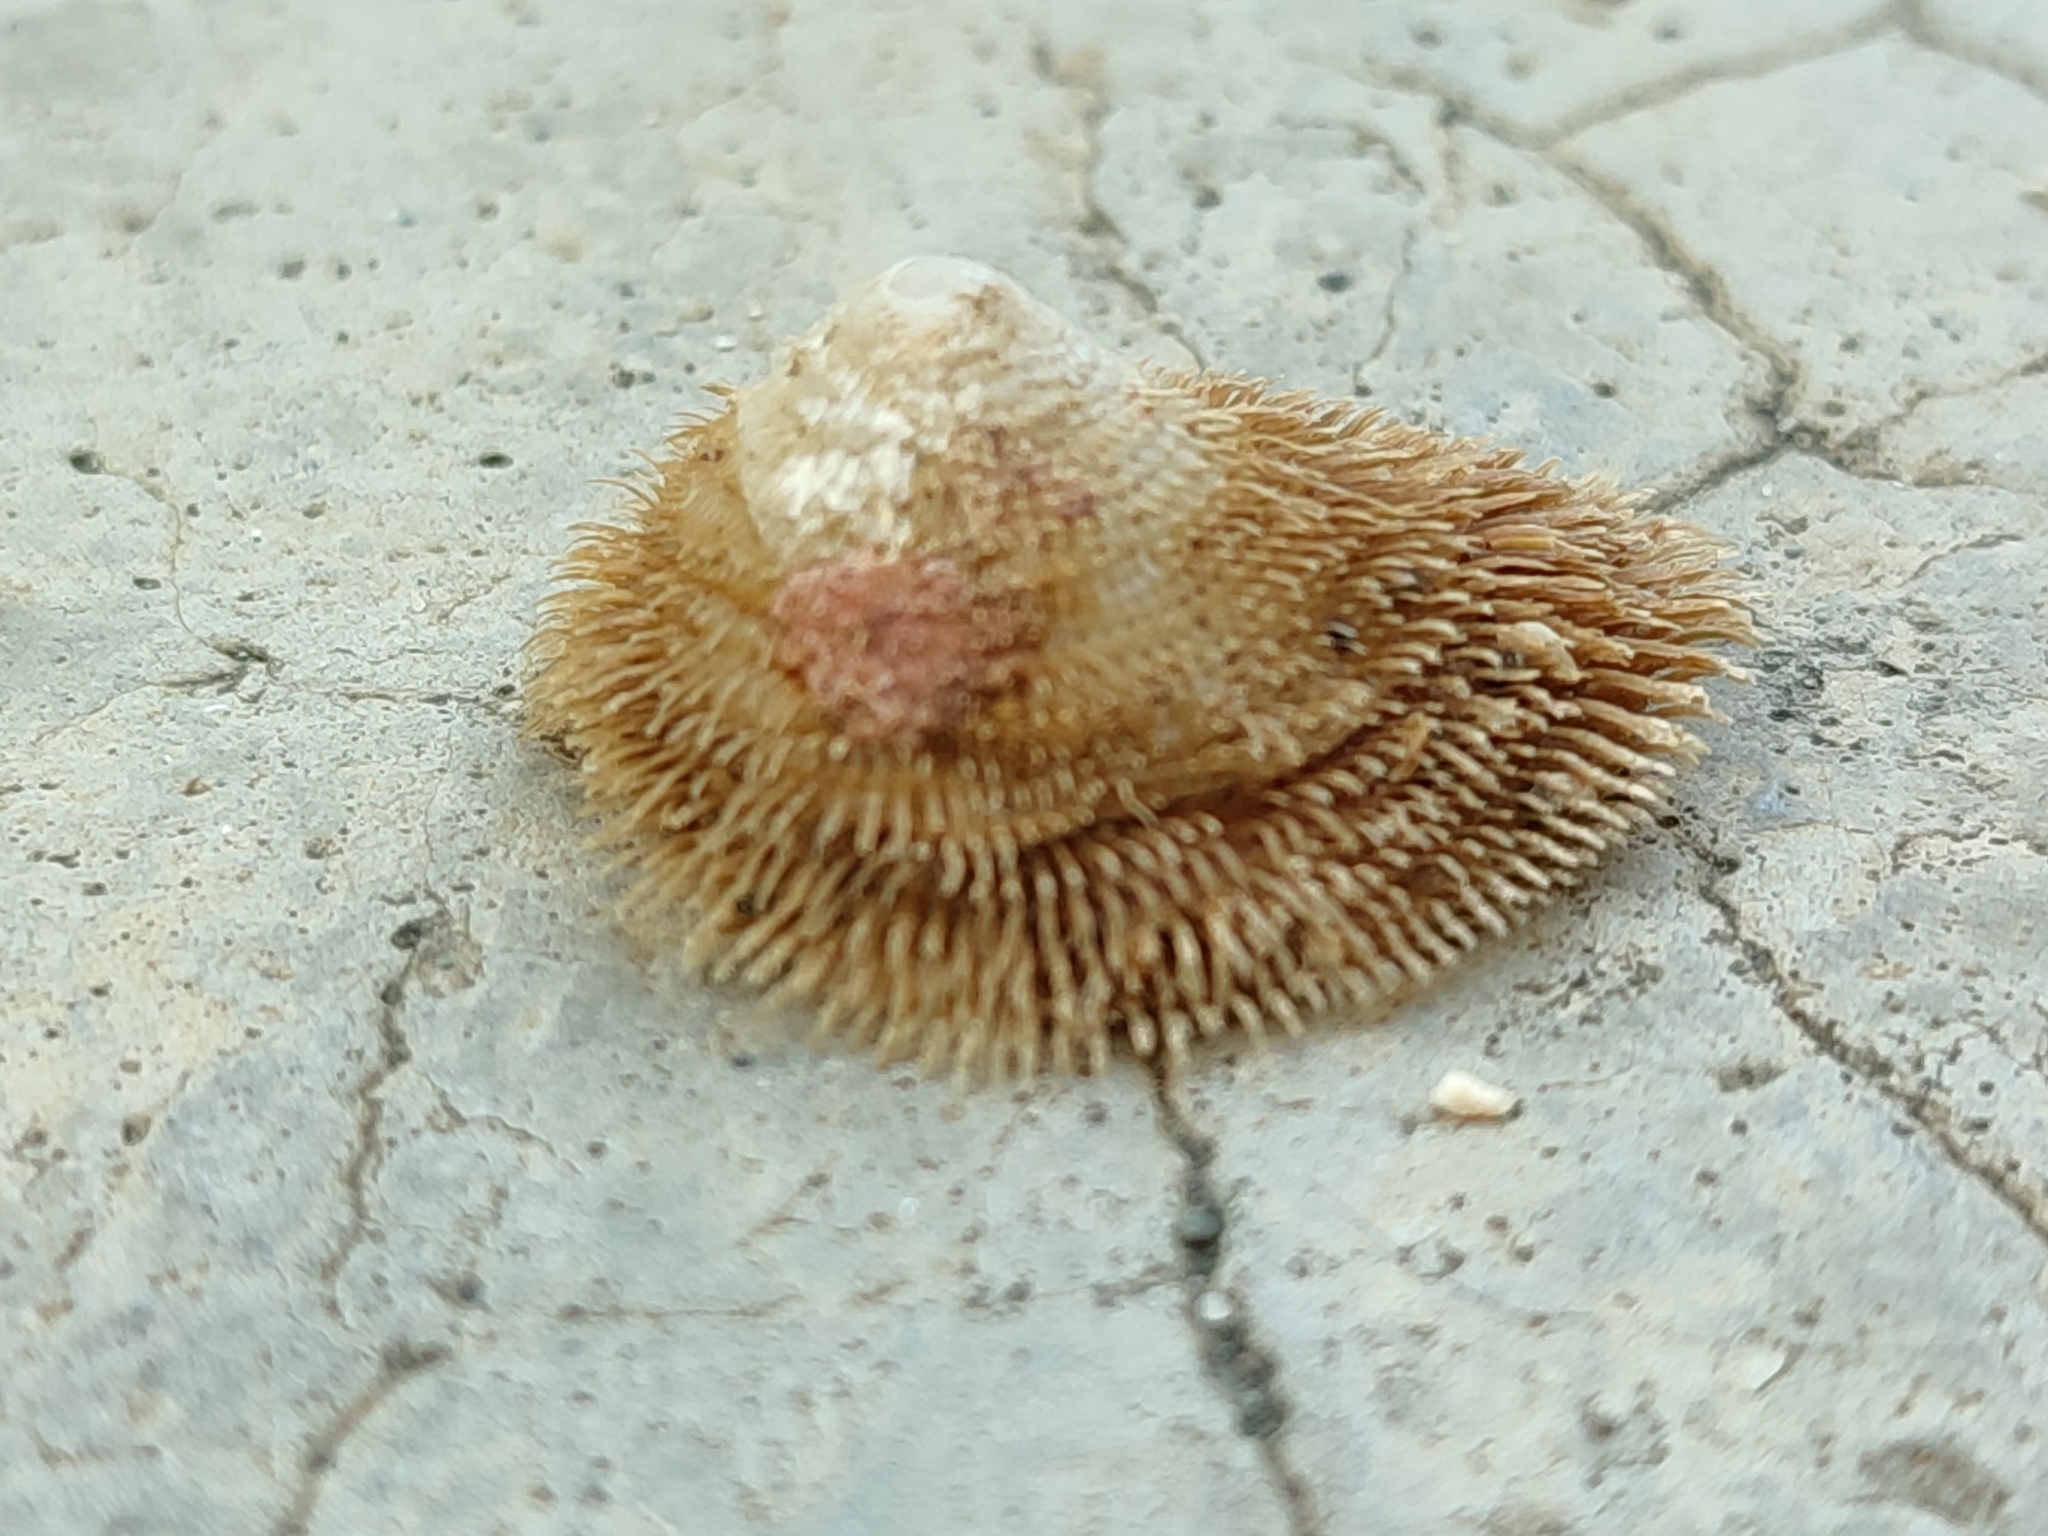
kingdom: Animalia
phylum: Mollusca
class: Gastropoda
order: Littorinimorpha
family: Hipponicidae
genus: Pilosabia
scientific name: Pilosabia trigona
